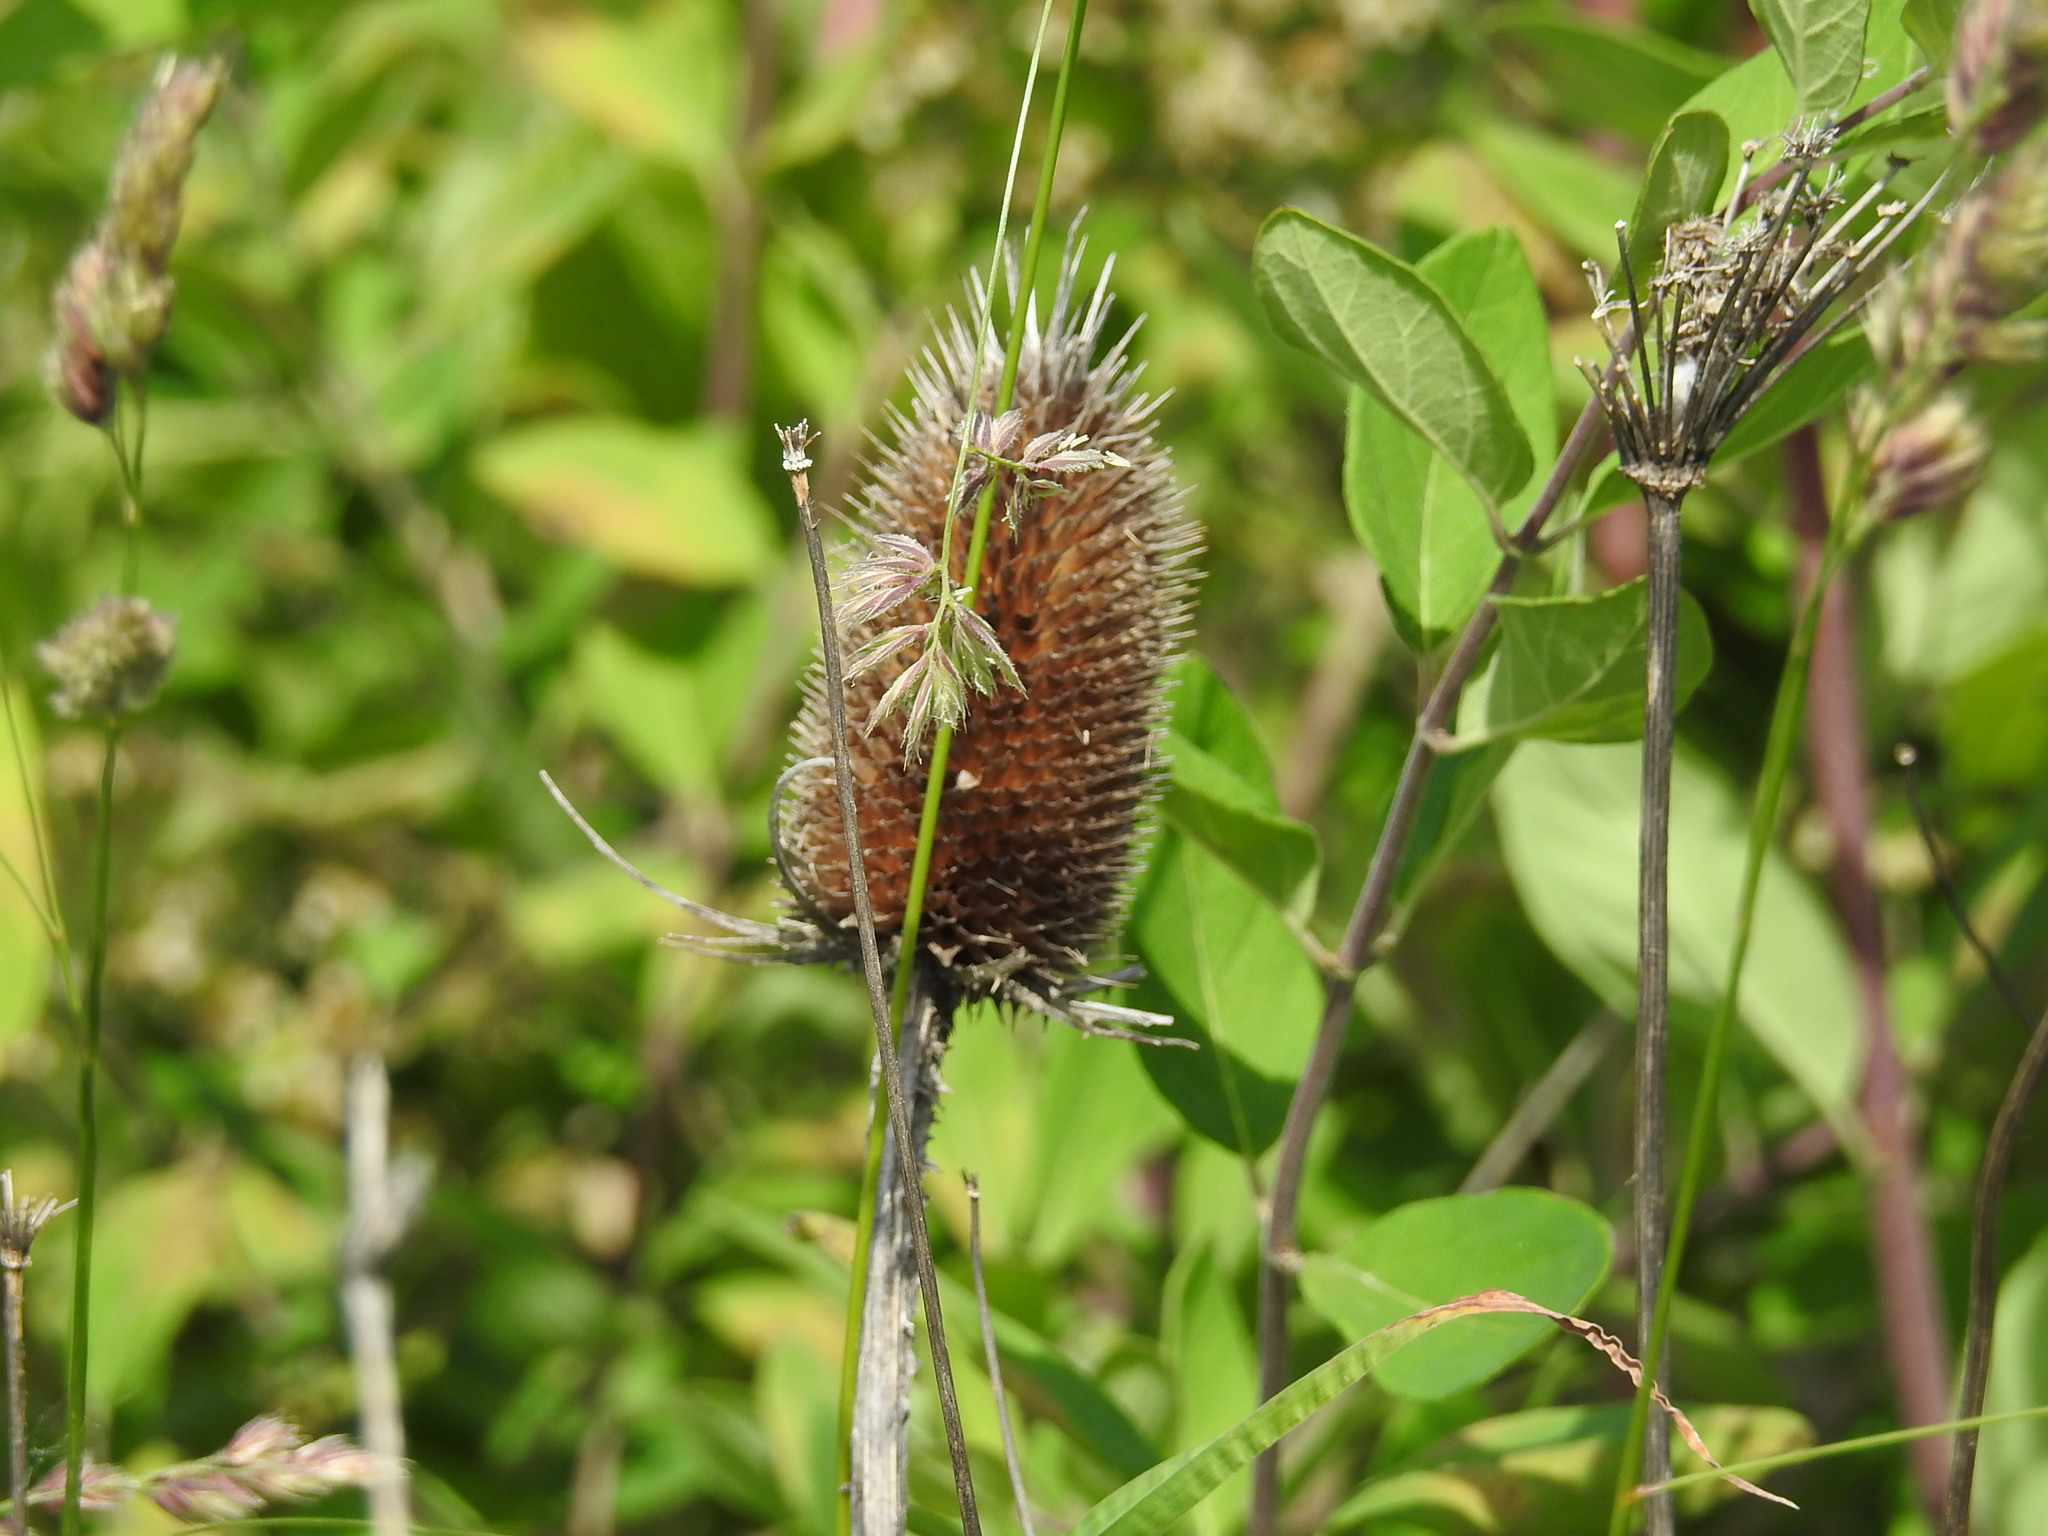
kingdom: Plantae
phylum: Tracheophyta
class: Magnoliopsida
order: Dipsacales
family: Caprifoliaceae
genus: Dipsacus
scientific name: Dipsacus fullonum
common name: Teasel
